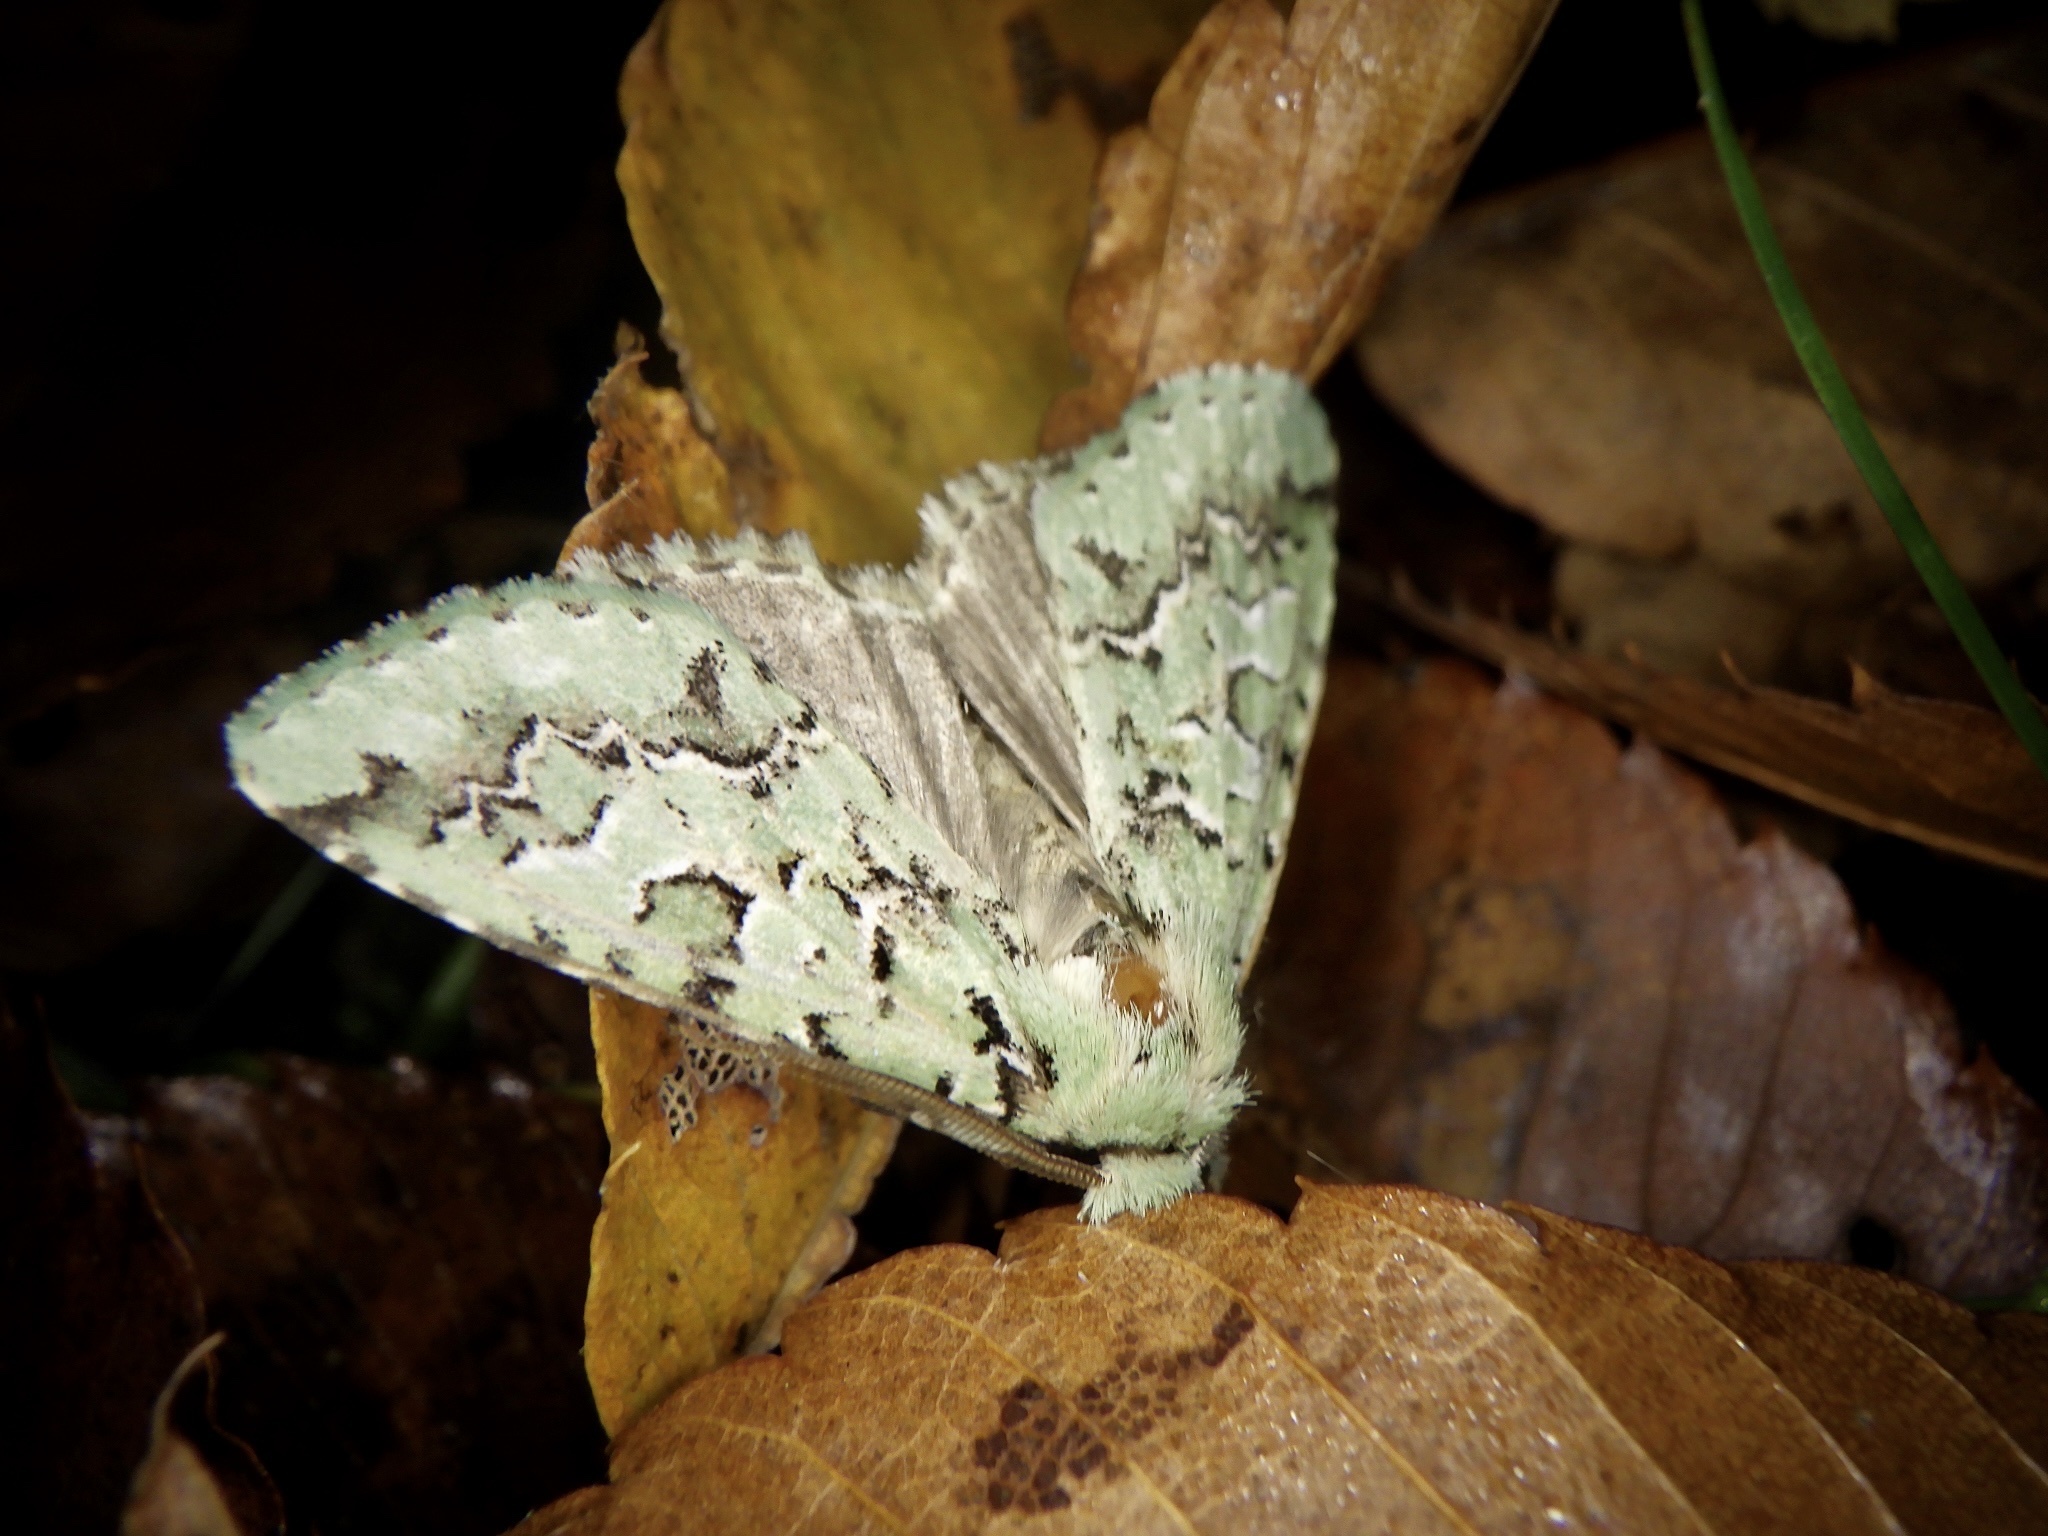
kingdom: Animalia
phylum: Arthropoda
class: Insecta
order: Lepidoptera
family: Noctuidae
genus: Daseochaeta
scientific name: Daseochaeta viridis
